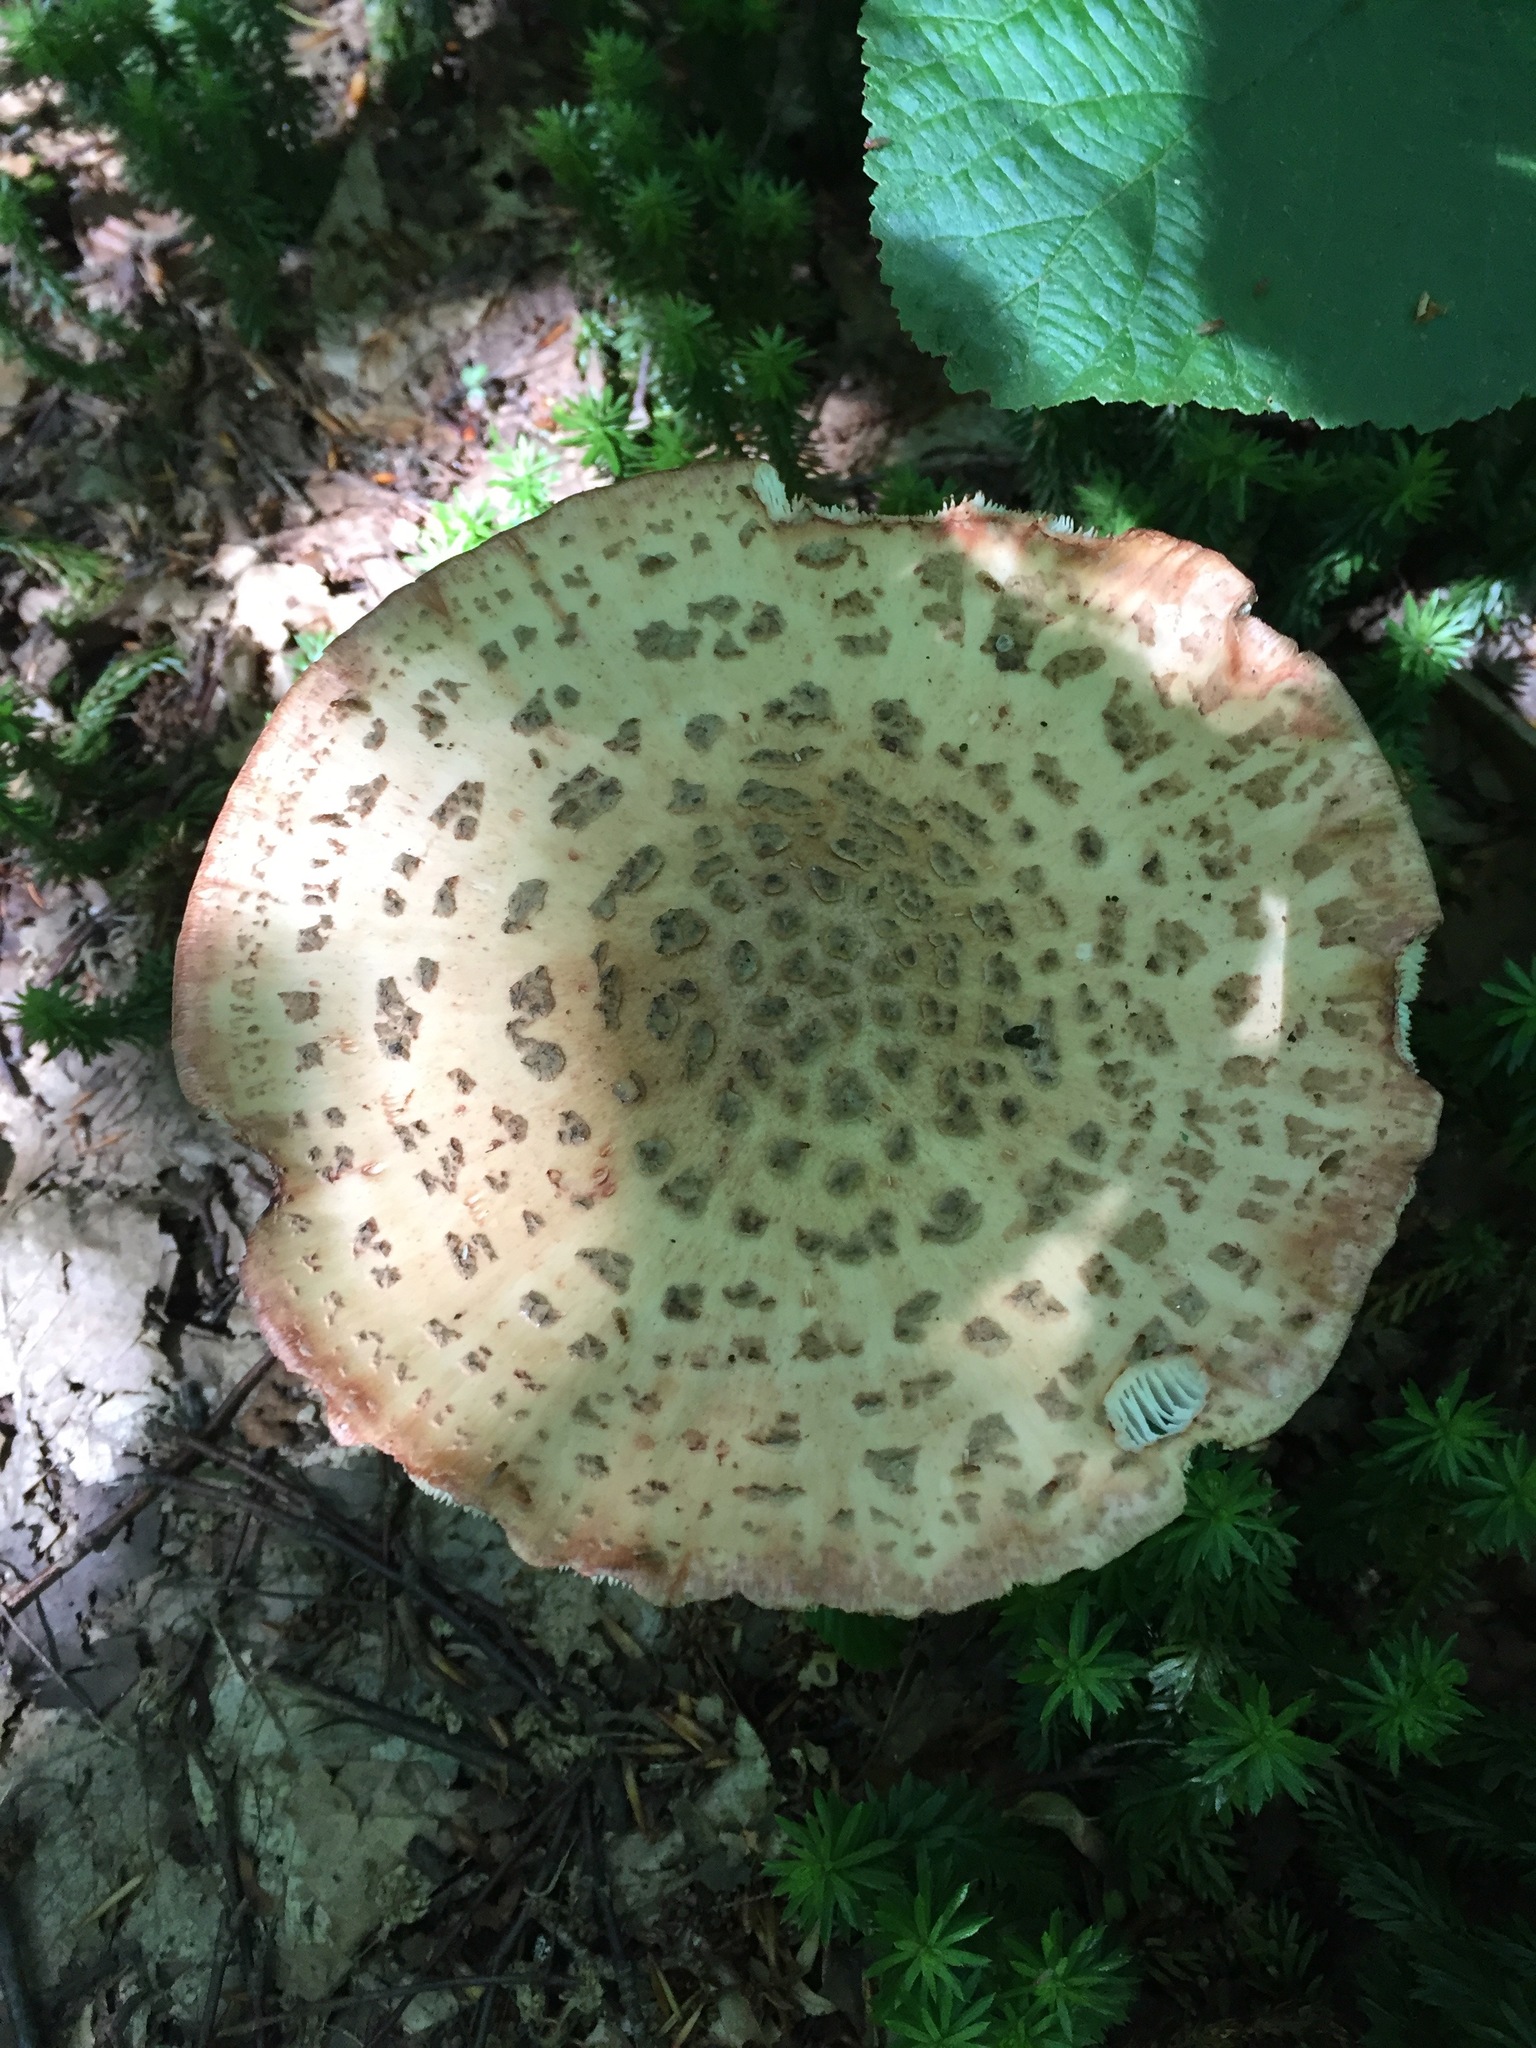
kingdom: Fungi
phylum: Basidiomycota
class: Agaricomycetes
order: Agaricales
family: Amanitaceae
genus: Amanita
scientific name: Amanita rubescens
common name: Blusher
